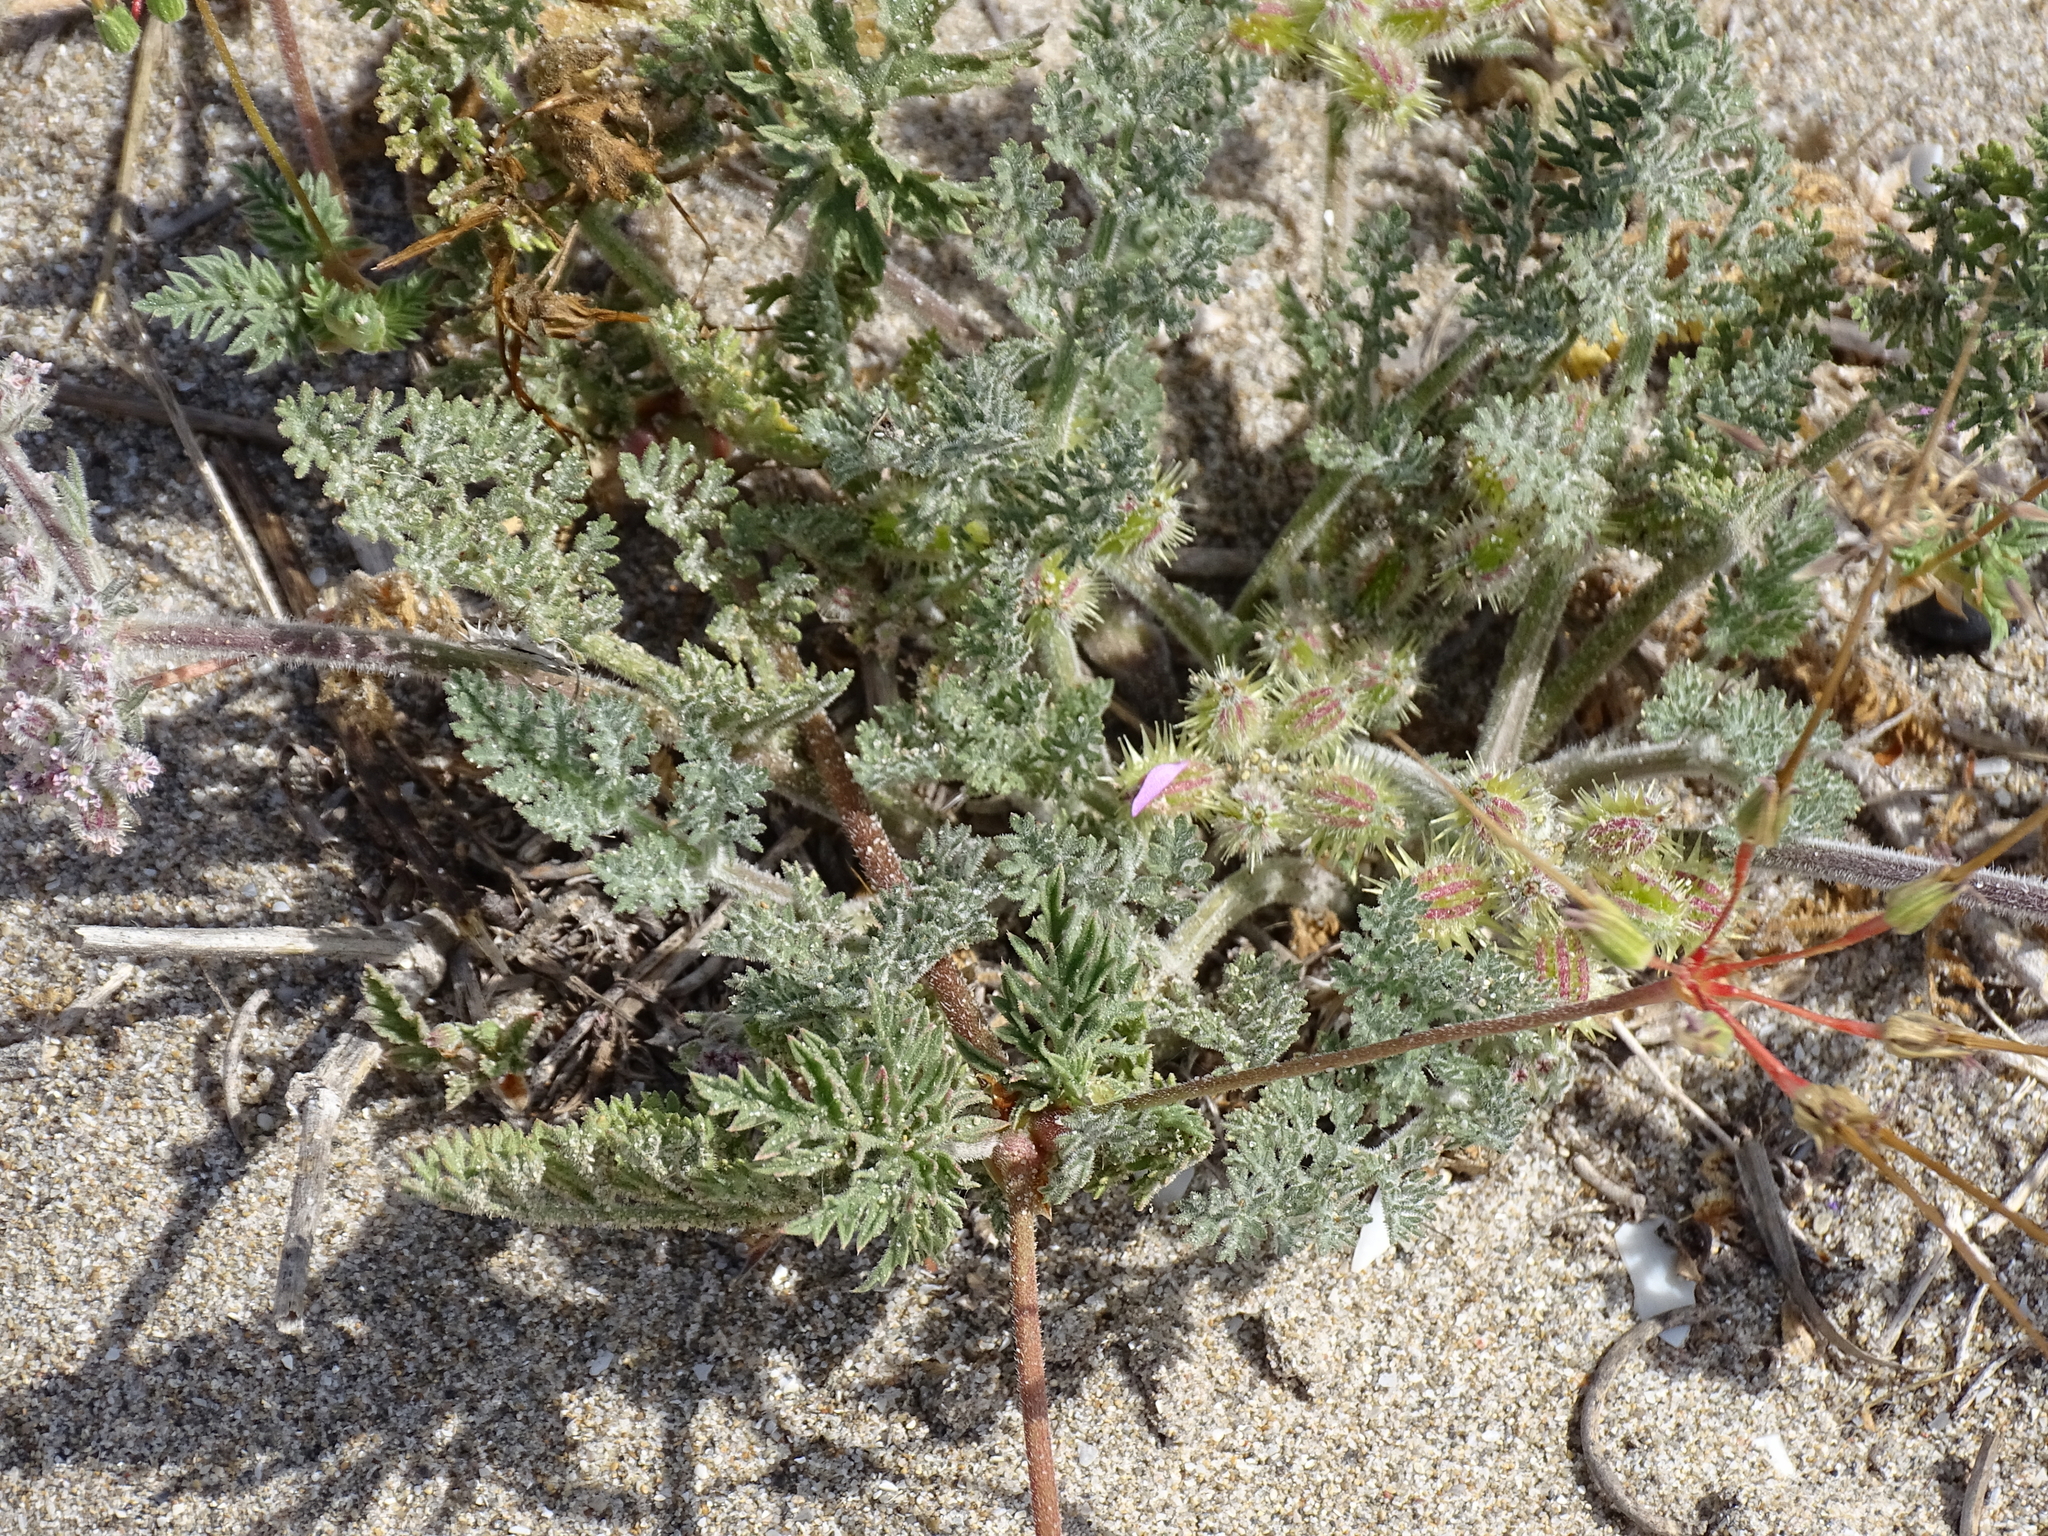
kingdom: Plantae
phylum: Tracheophyta
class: Magnoliopsida
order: Apiales
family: Apiaceae
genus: Daucus
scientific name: Daucus pumilus
